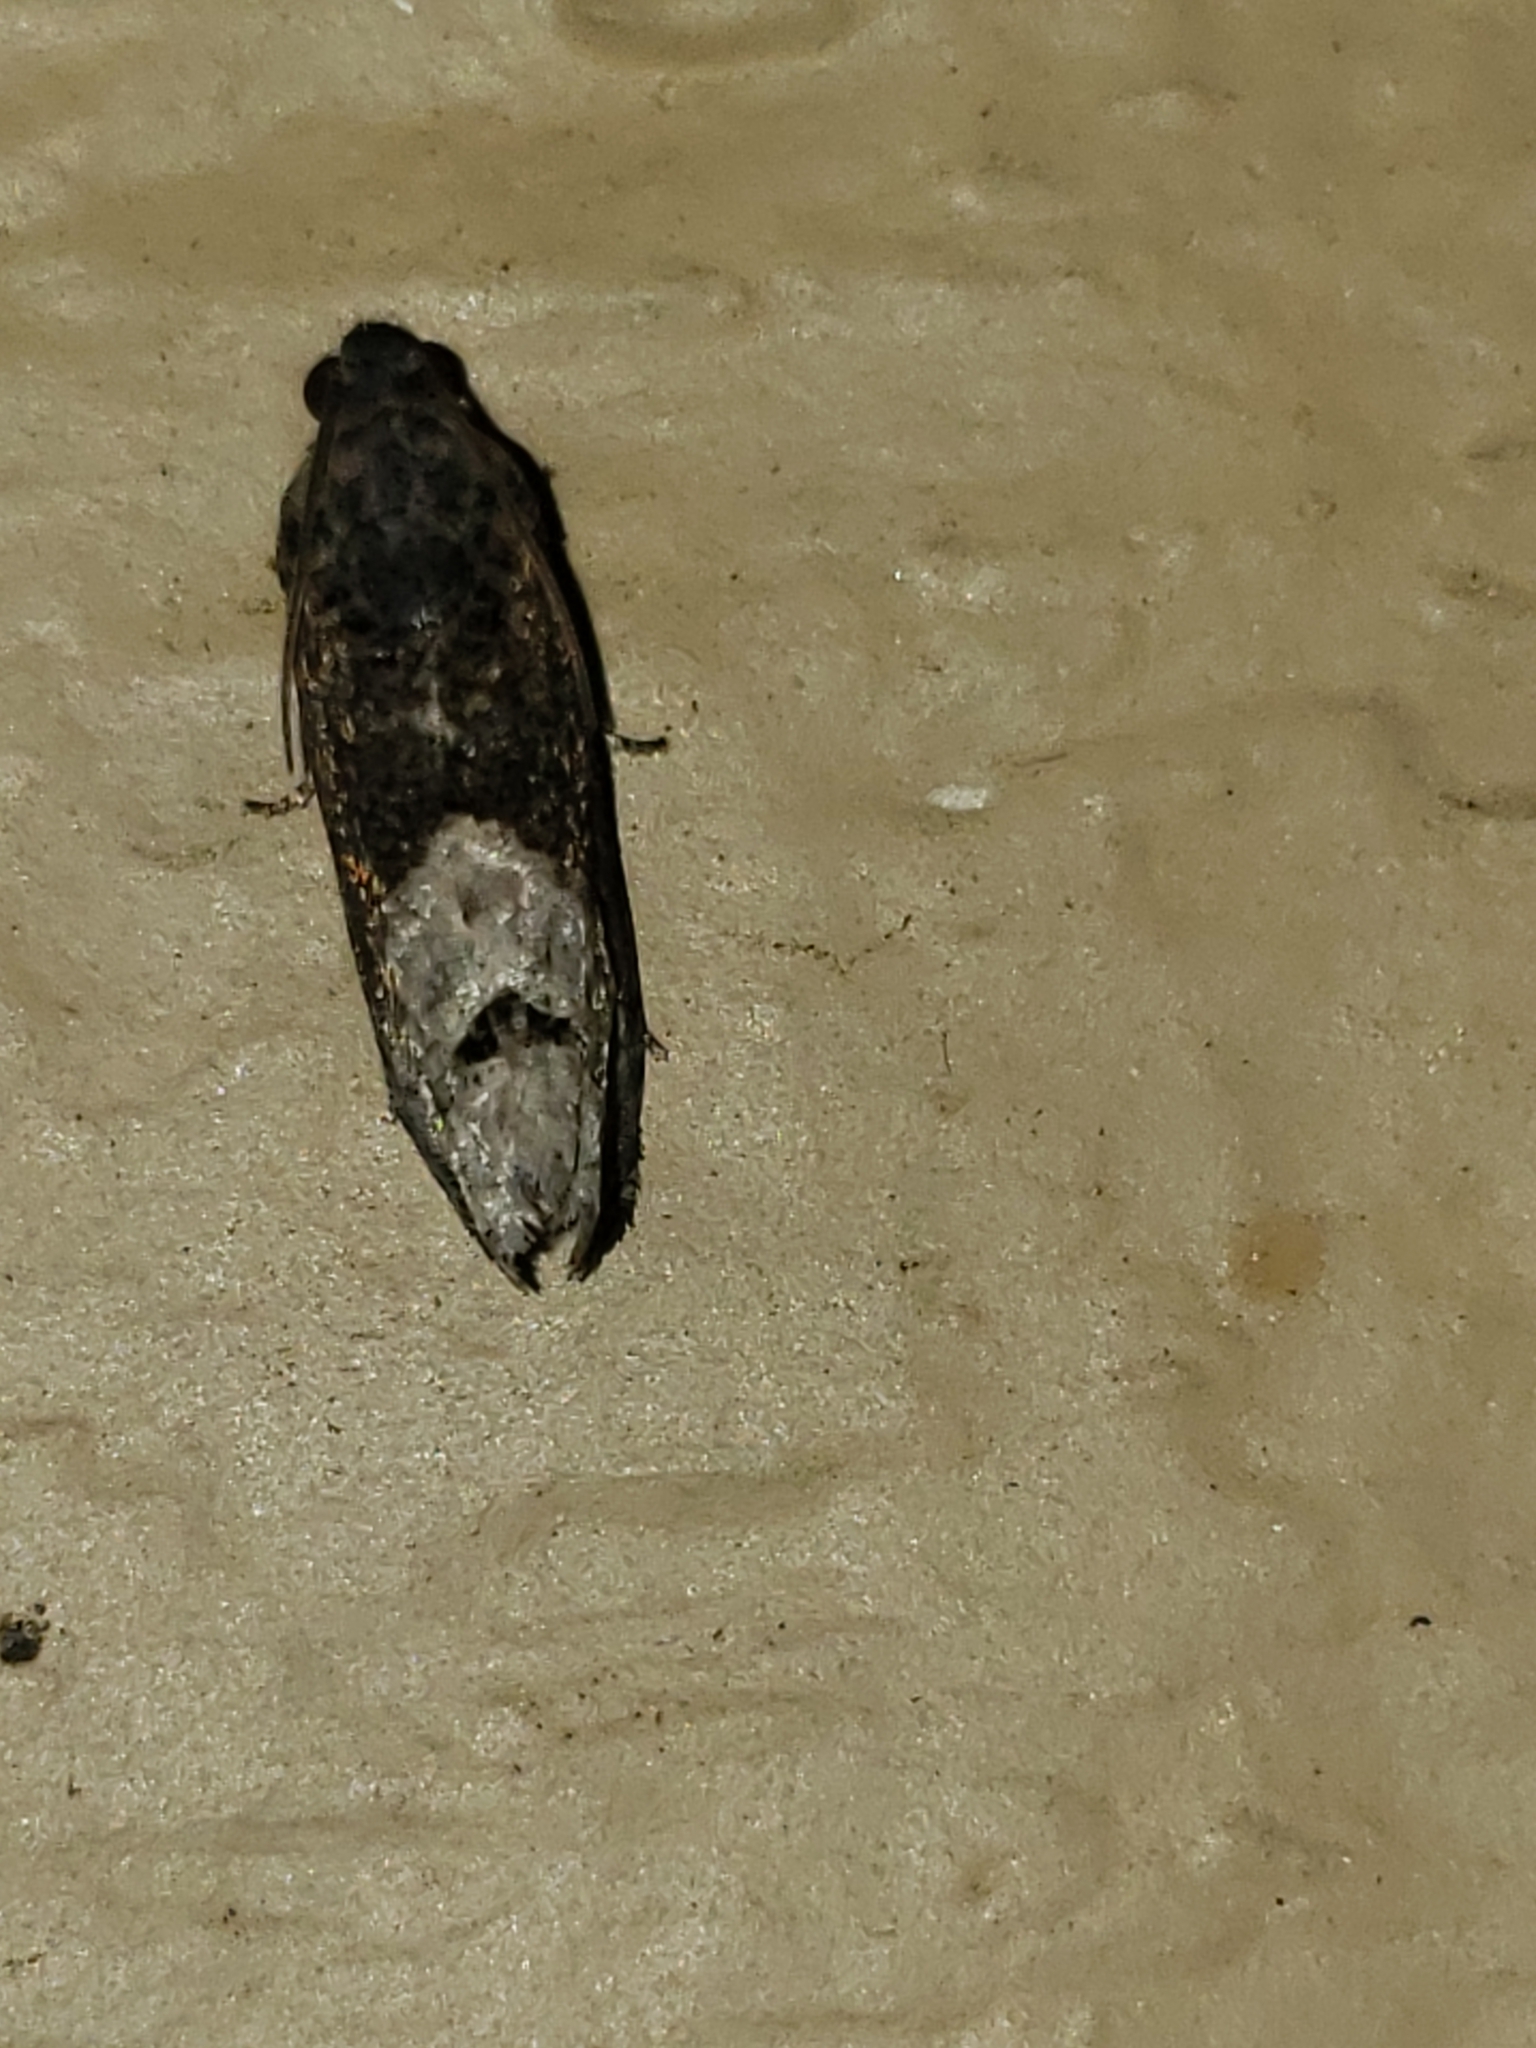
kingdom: Animalia
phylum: Arthropoda
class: Insecta
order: Lepidoptera
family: Tortricidae
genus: Ecdytolopha
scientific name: Ecdytolopha insiticiana
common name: Locust twig borer moth
